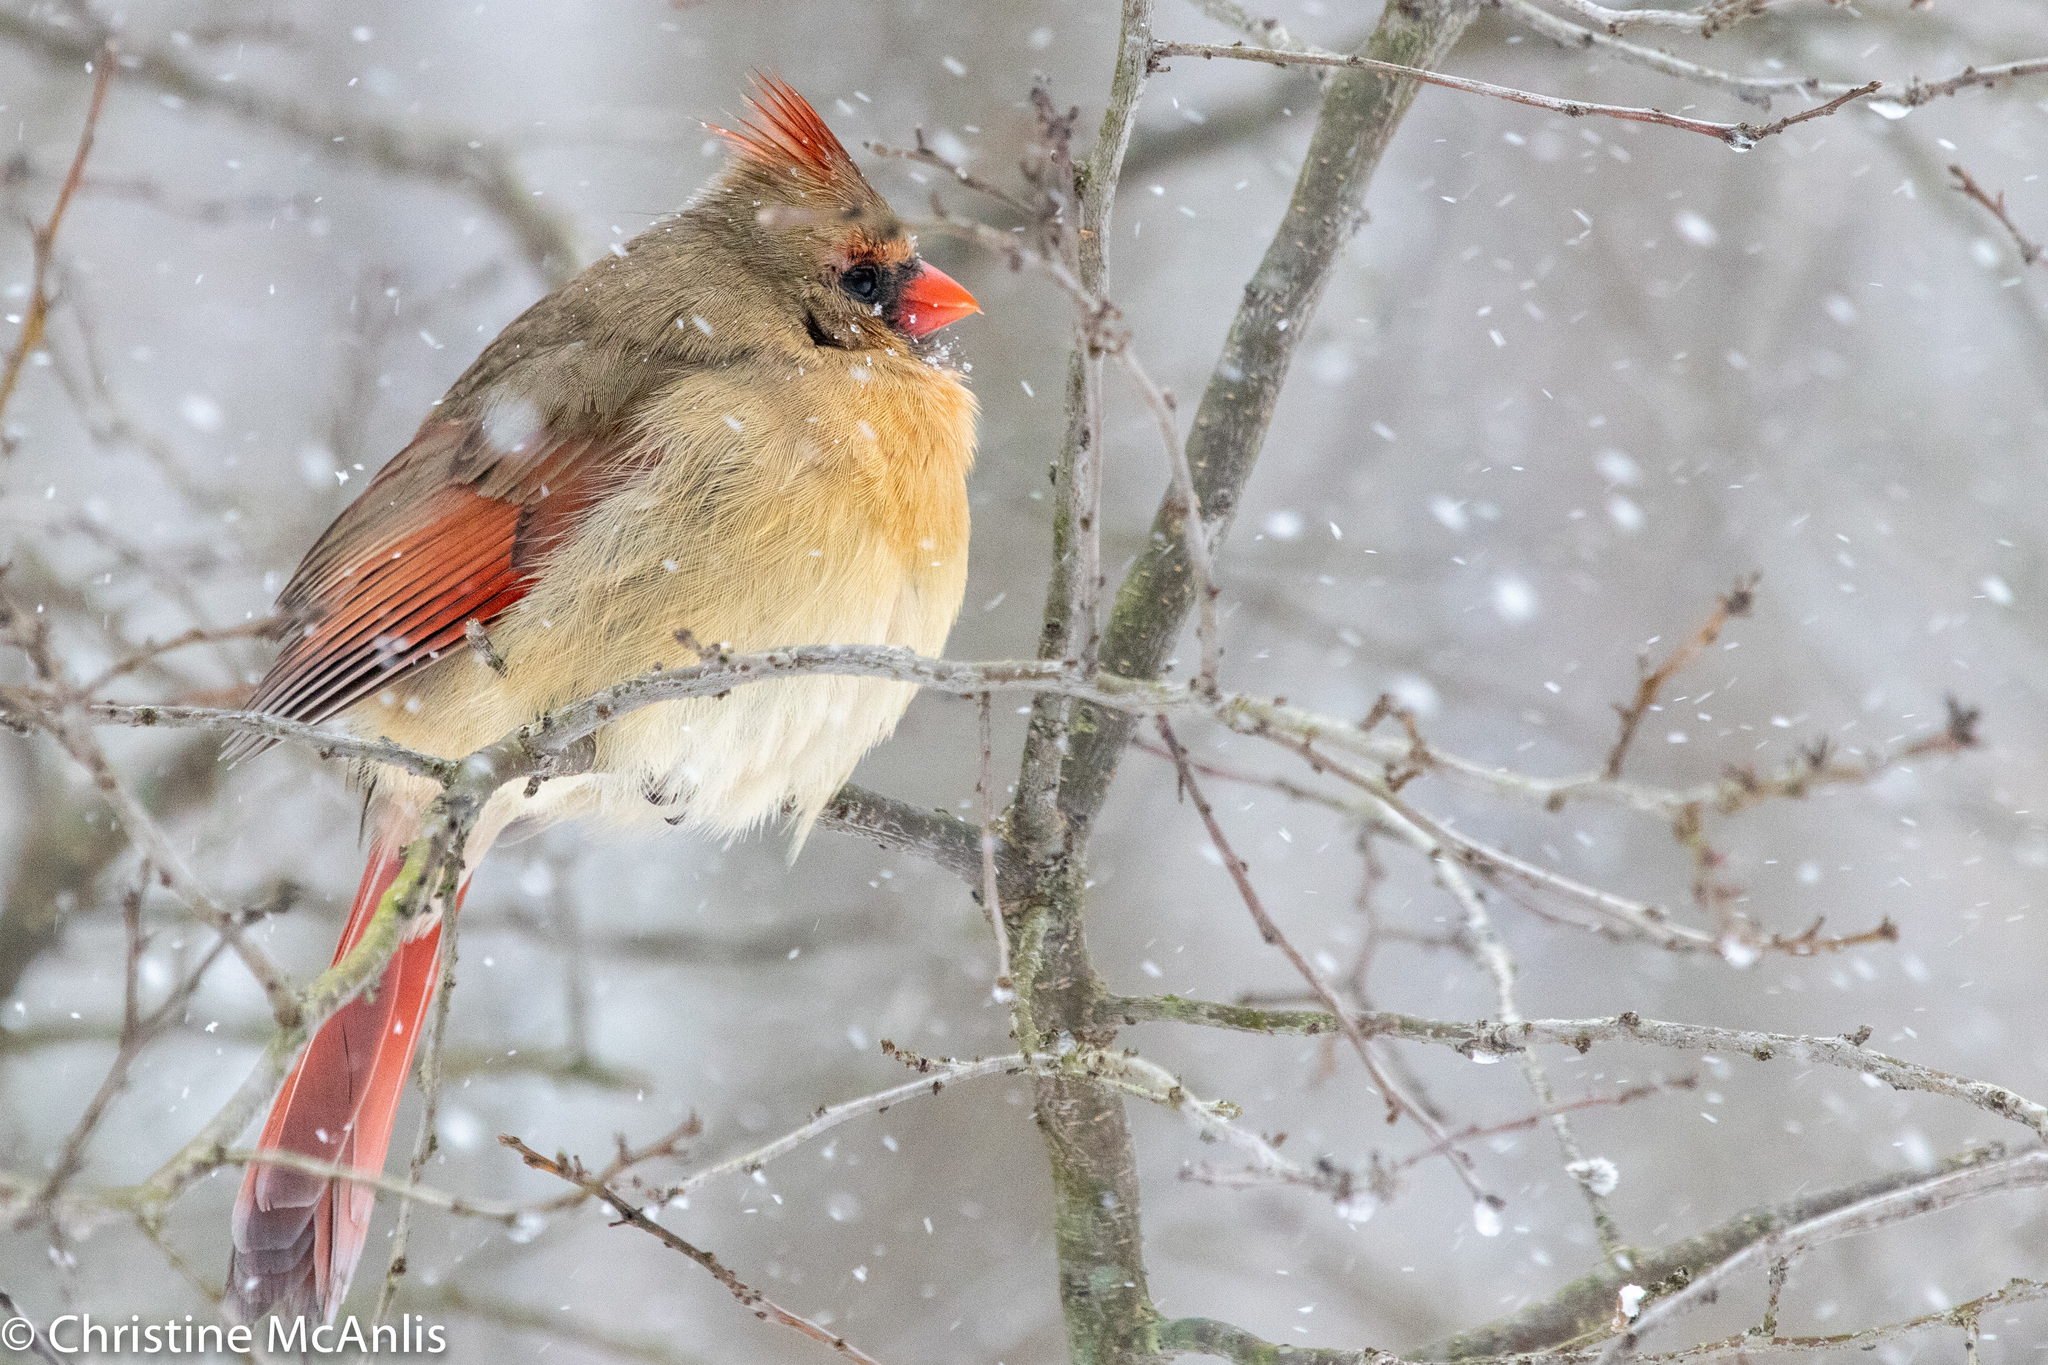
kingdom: Animalia
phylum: Chordata
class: Aves
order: Passeriformes
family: Cardinalidae
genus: Cardinalis
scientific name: Cardinalis cardinalis
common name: Northern cardinal
